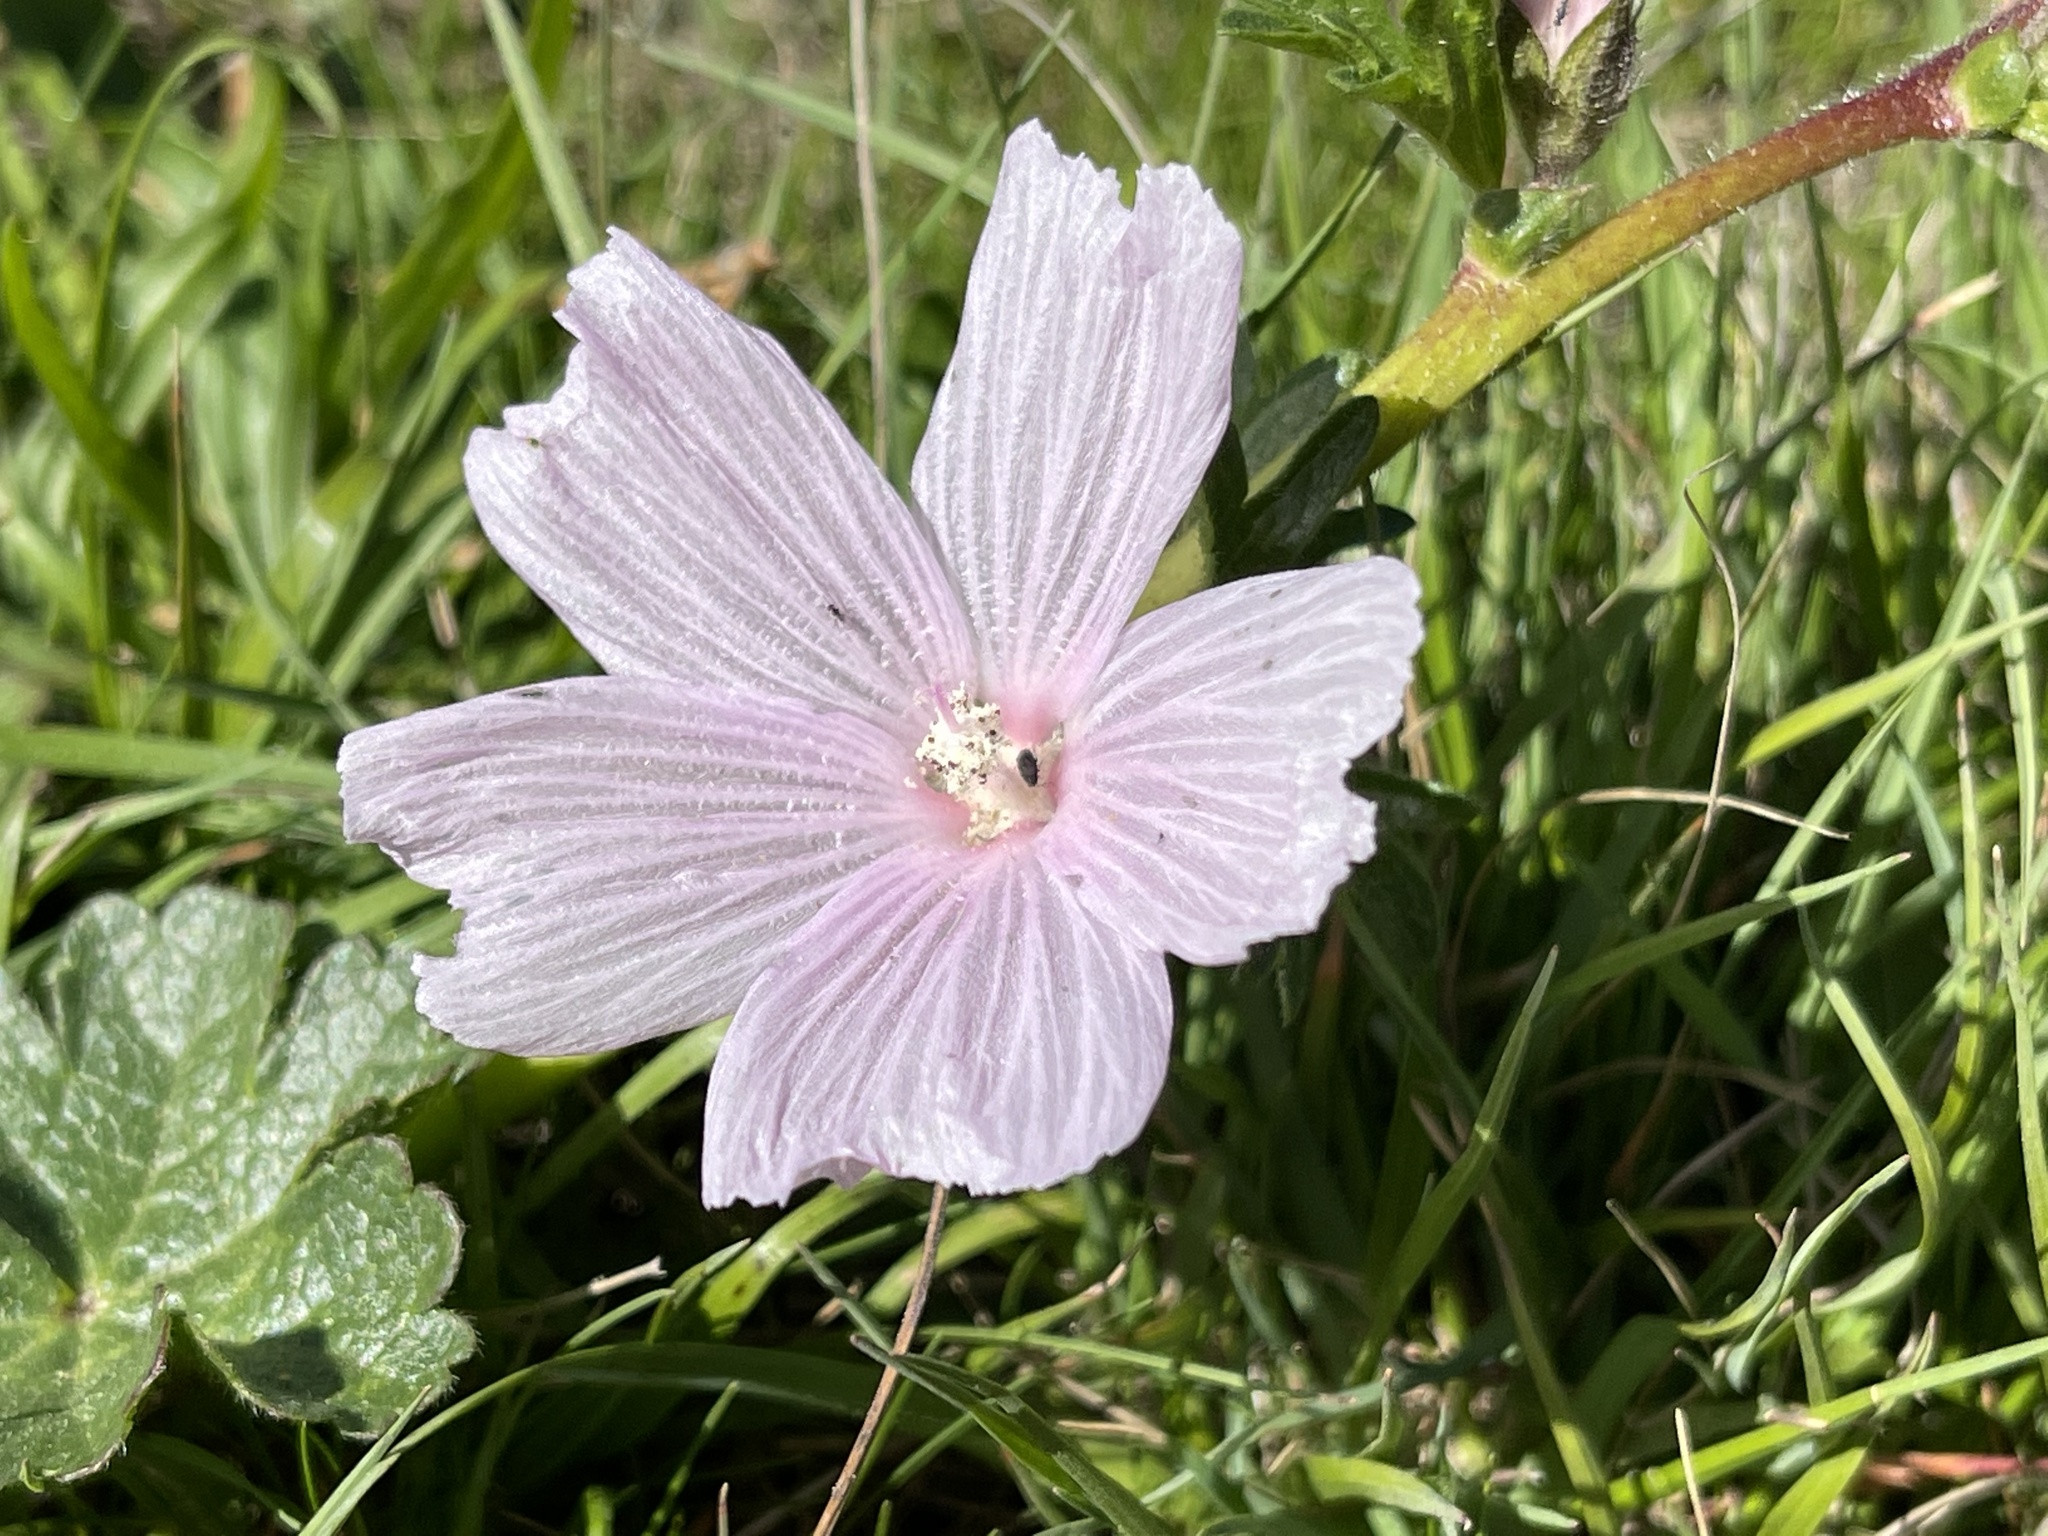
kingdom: Plantae
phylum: Tracheophyta
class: Magnoliopsida
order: Malvales
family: Malvaceae
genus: Sidalcea
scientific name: Sidalcea malviflora
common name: Greek mallow
